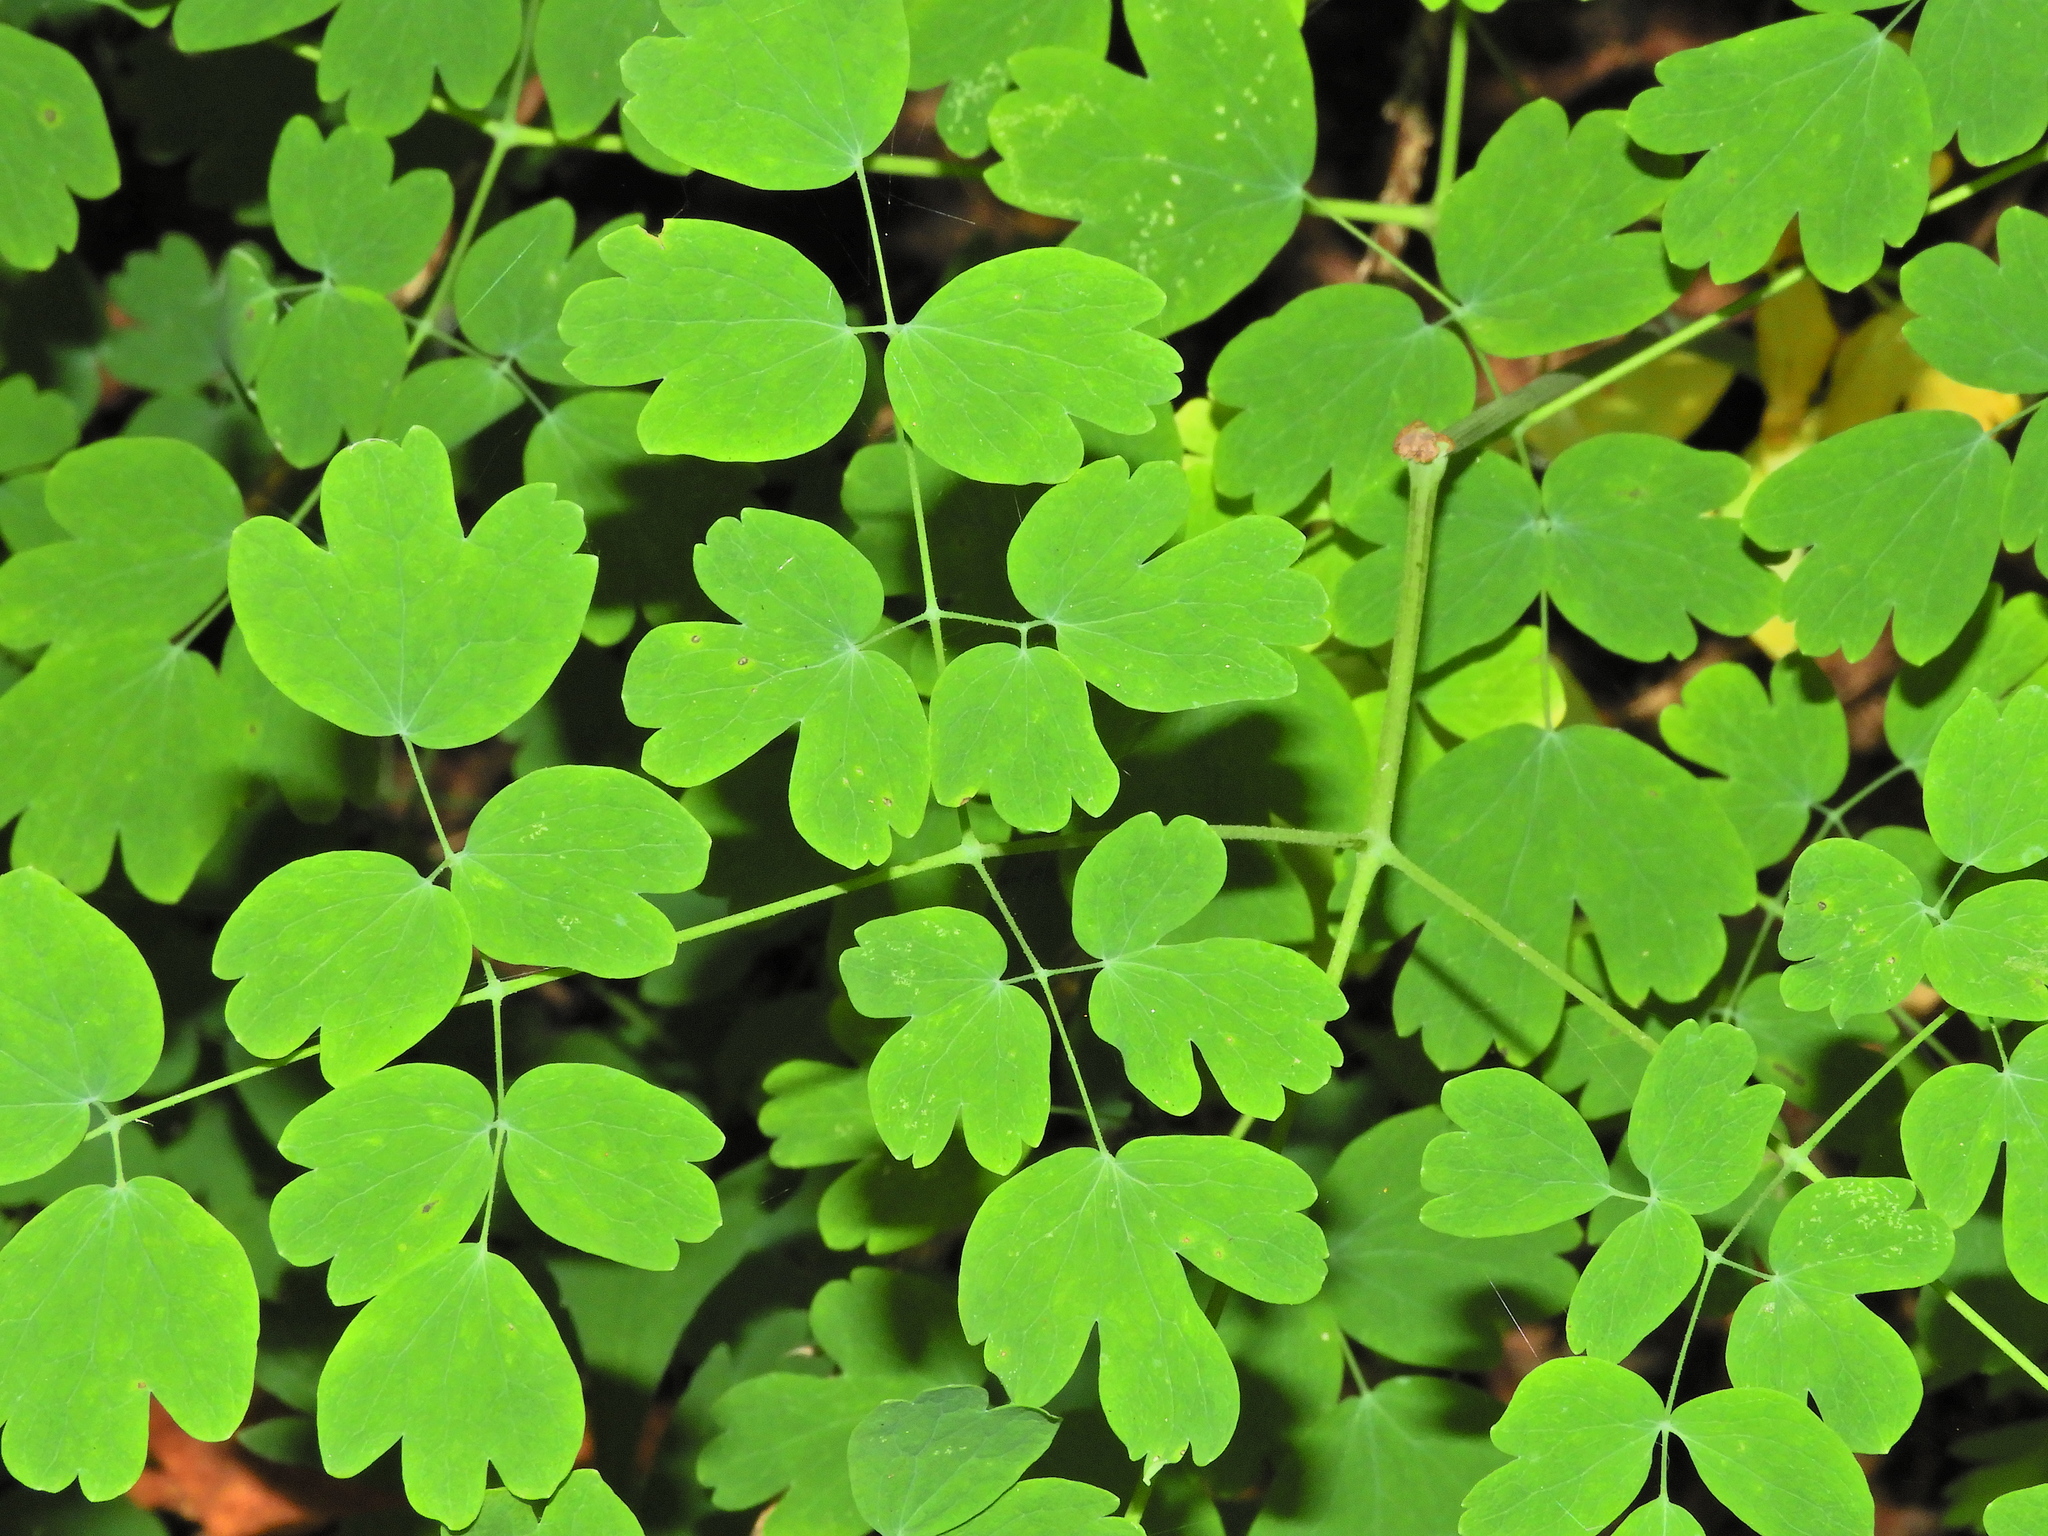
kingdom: Plantae
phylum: Tracheophyta
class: Magnoliopsida
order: Ranunculales
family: Ranunculaceae
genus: Thalictrum
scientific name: Thalictrum occidentale
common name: Western meadow-rue
